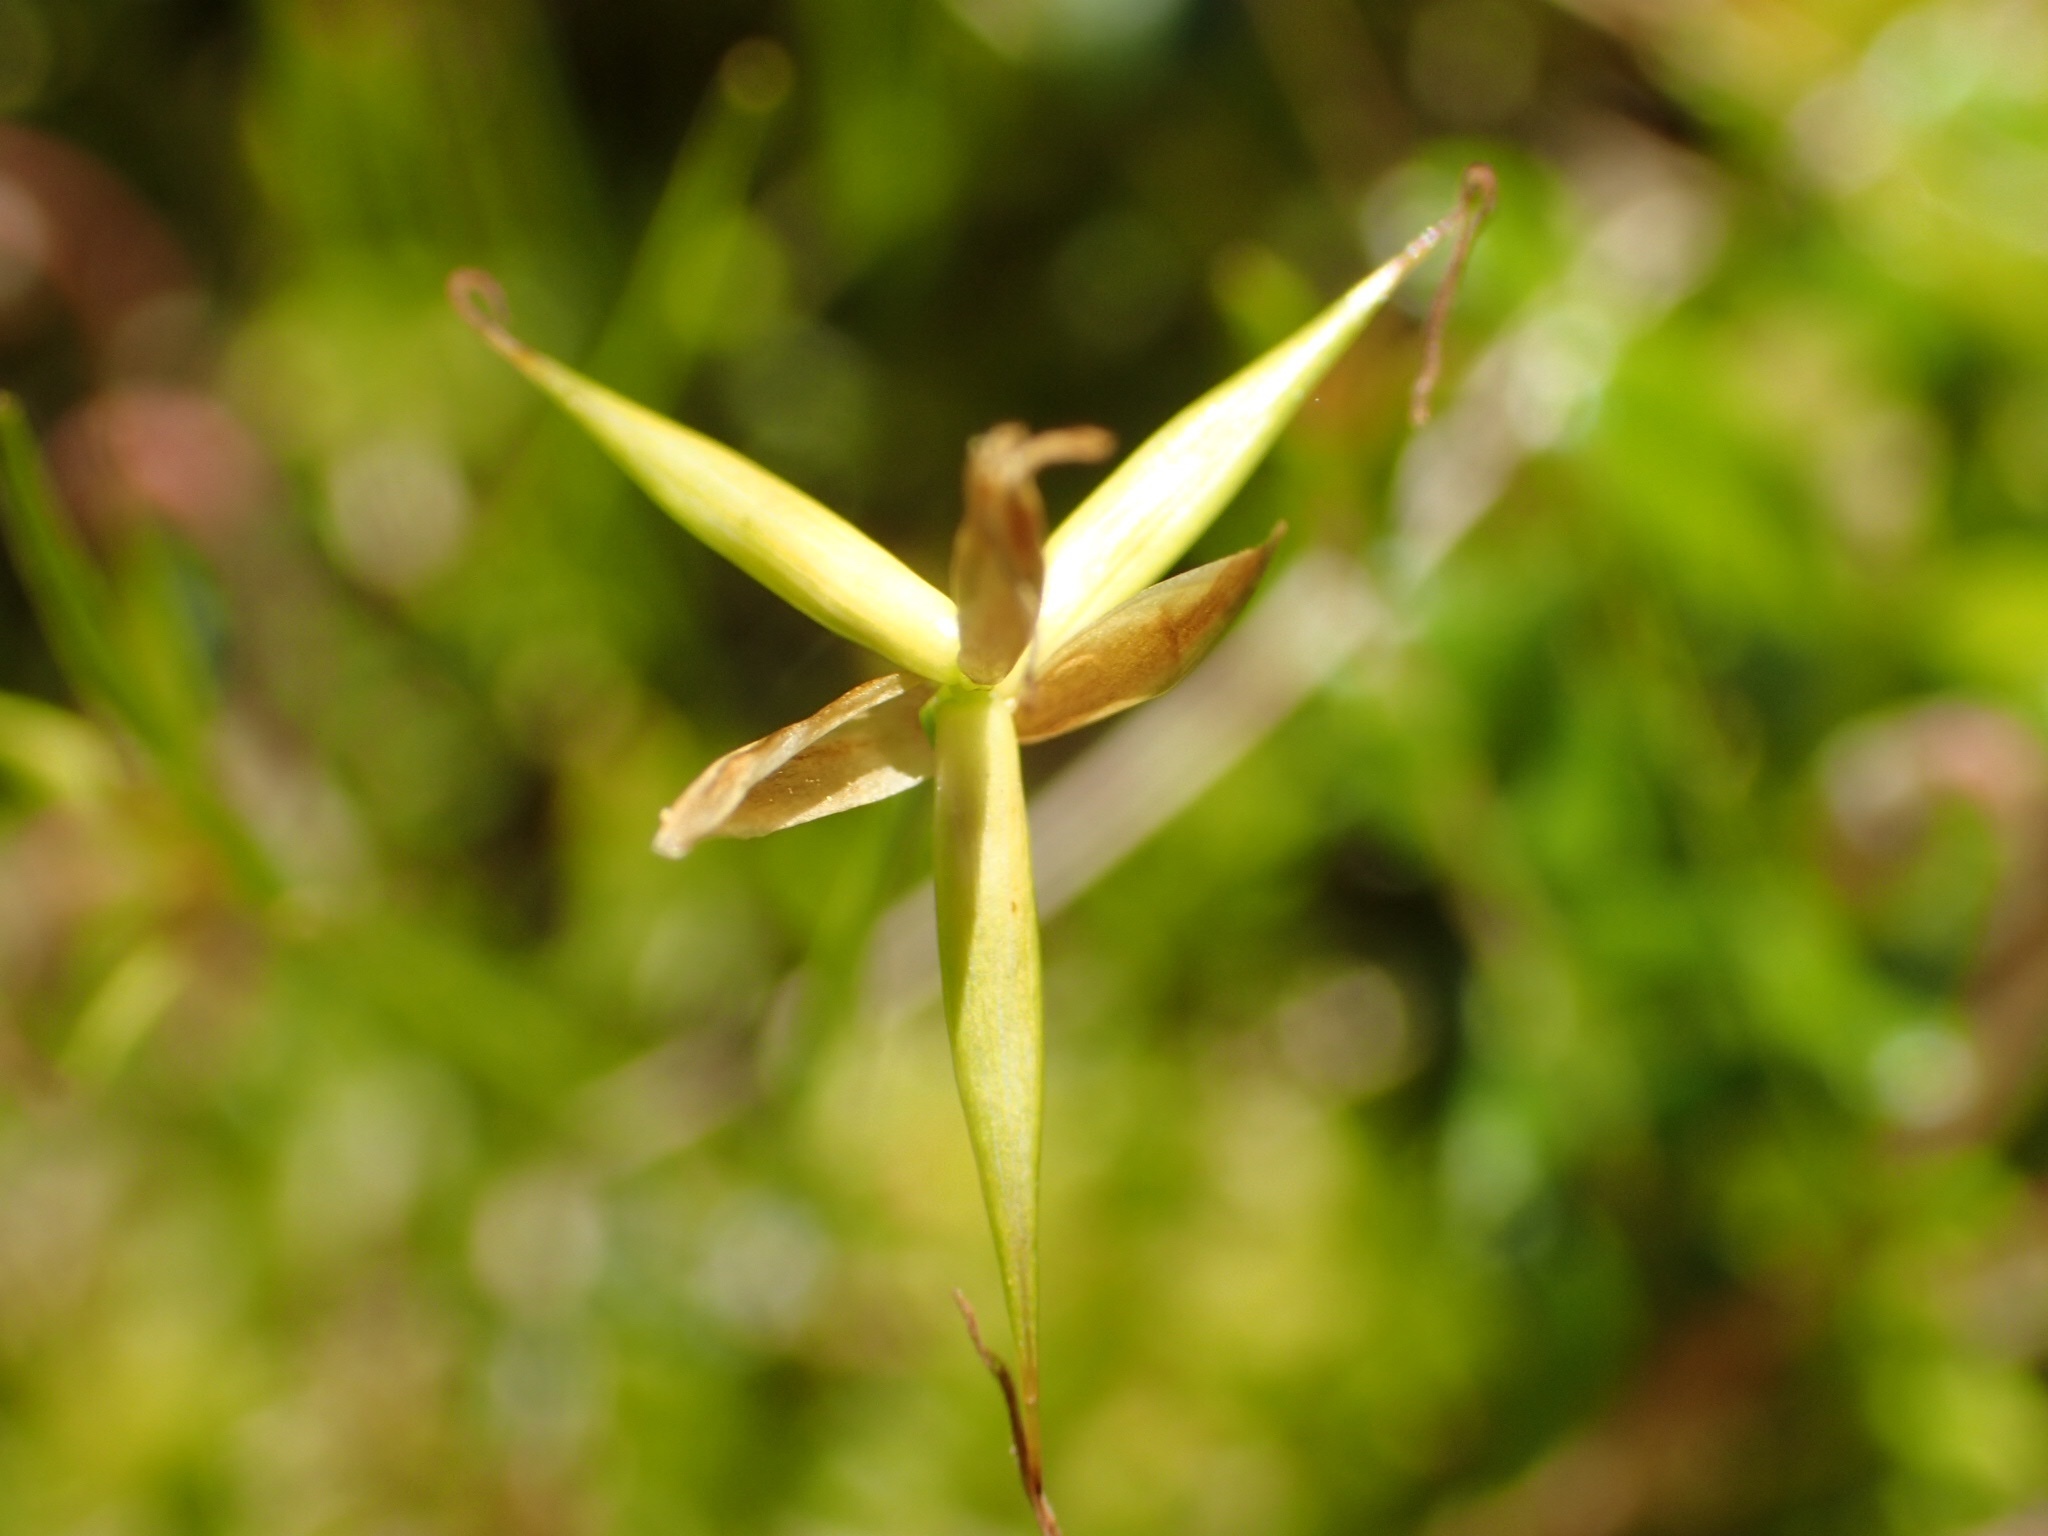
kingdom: Plantae
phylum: Tracheophyta
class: Liliopsida
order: Poales
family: Cyperaceae
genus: Carex
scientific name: Carex pauciflora
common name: Few-flowered sedge
